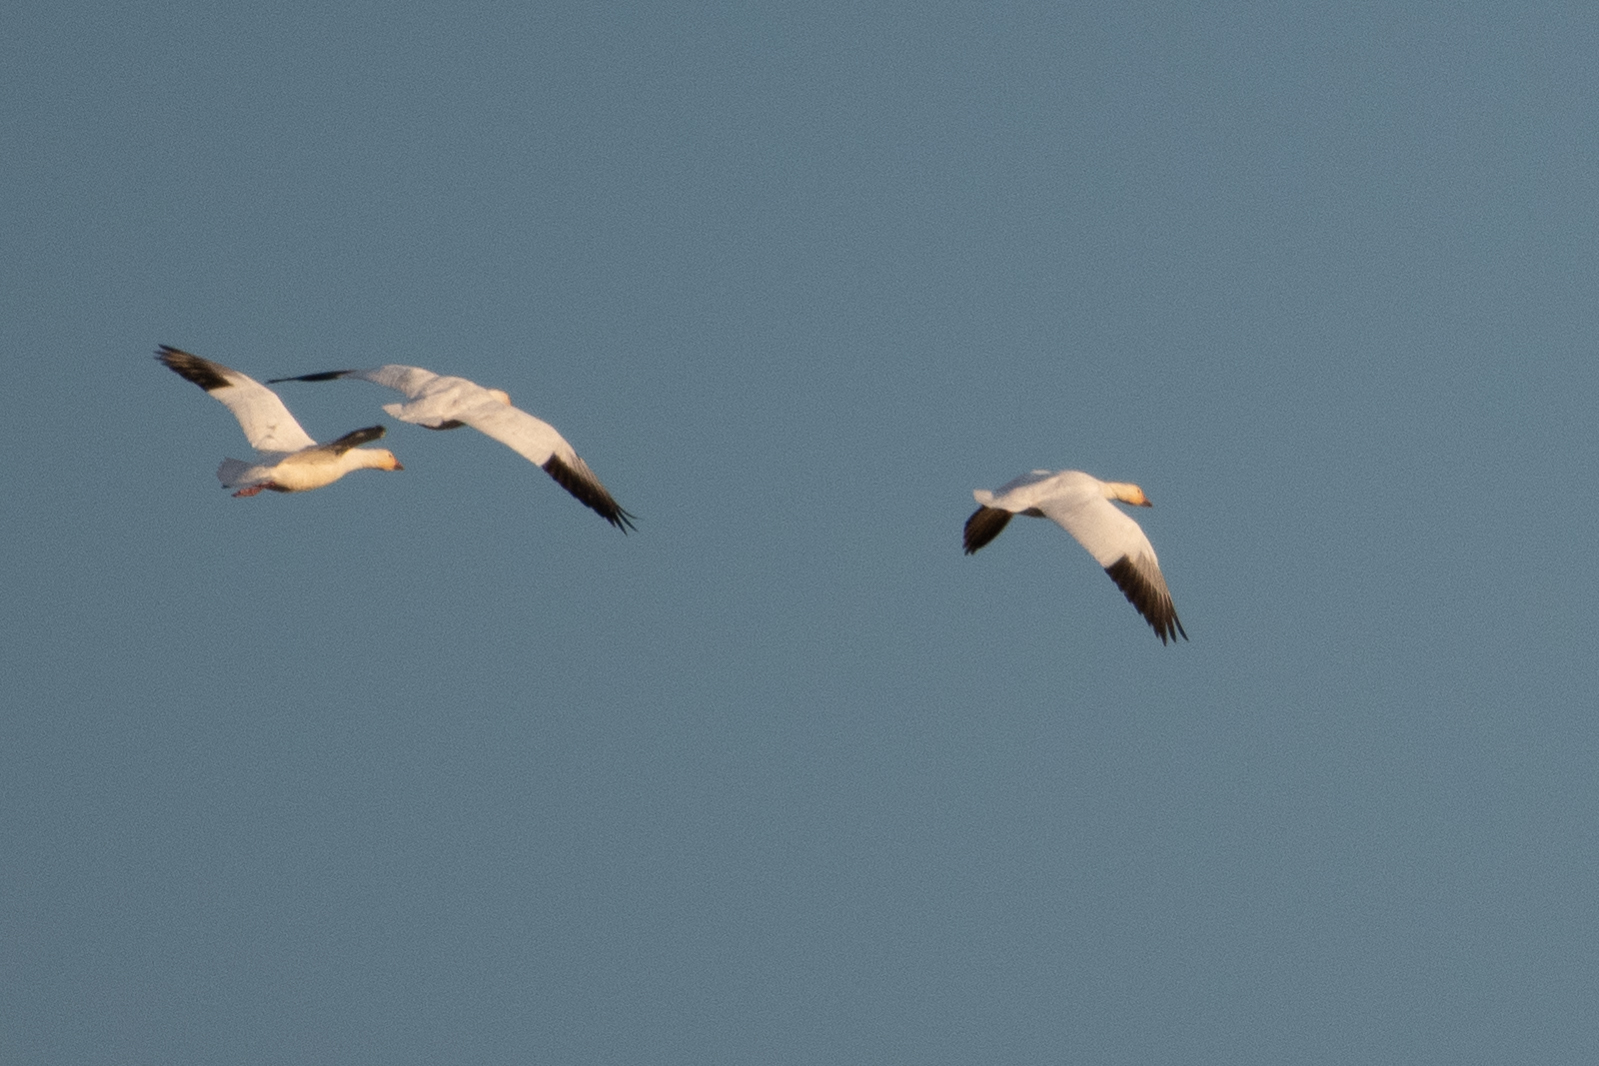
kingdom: Animalia
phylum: Chordata
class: Aves
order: Anseriformes
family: Anatidae
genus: Anser
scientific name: Anser caerulescens
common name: Snow goose
